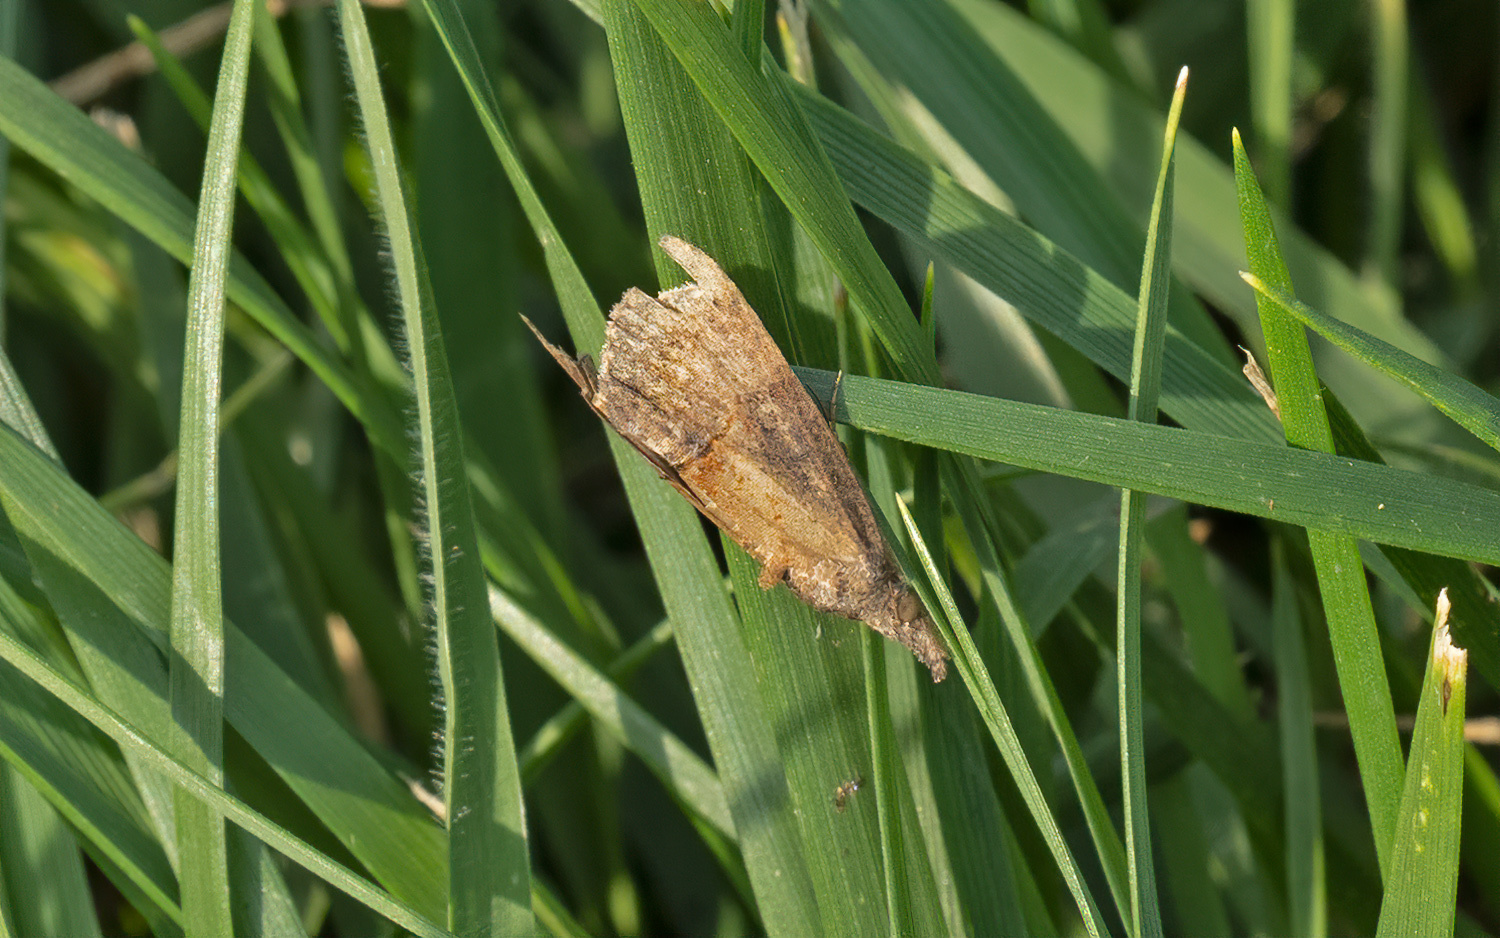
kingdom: Animalia
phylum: Arthropoda
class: Insecta
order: Lepidoptera
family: Erebidae
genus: Hypena
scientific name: Hypena scabra
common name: Green cloverworm
